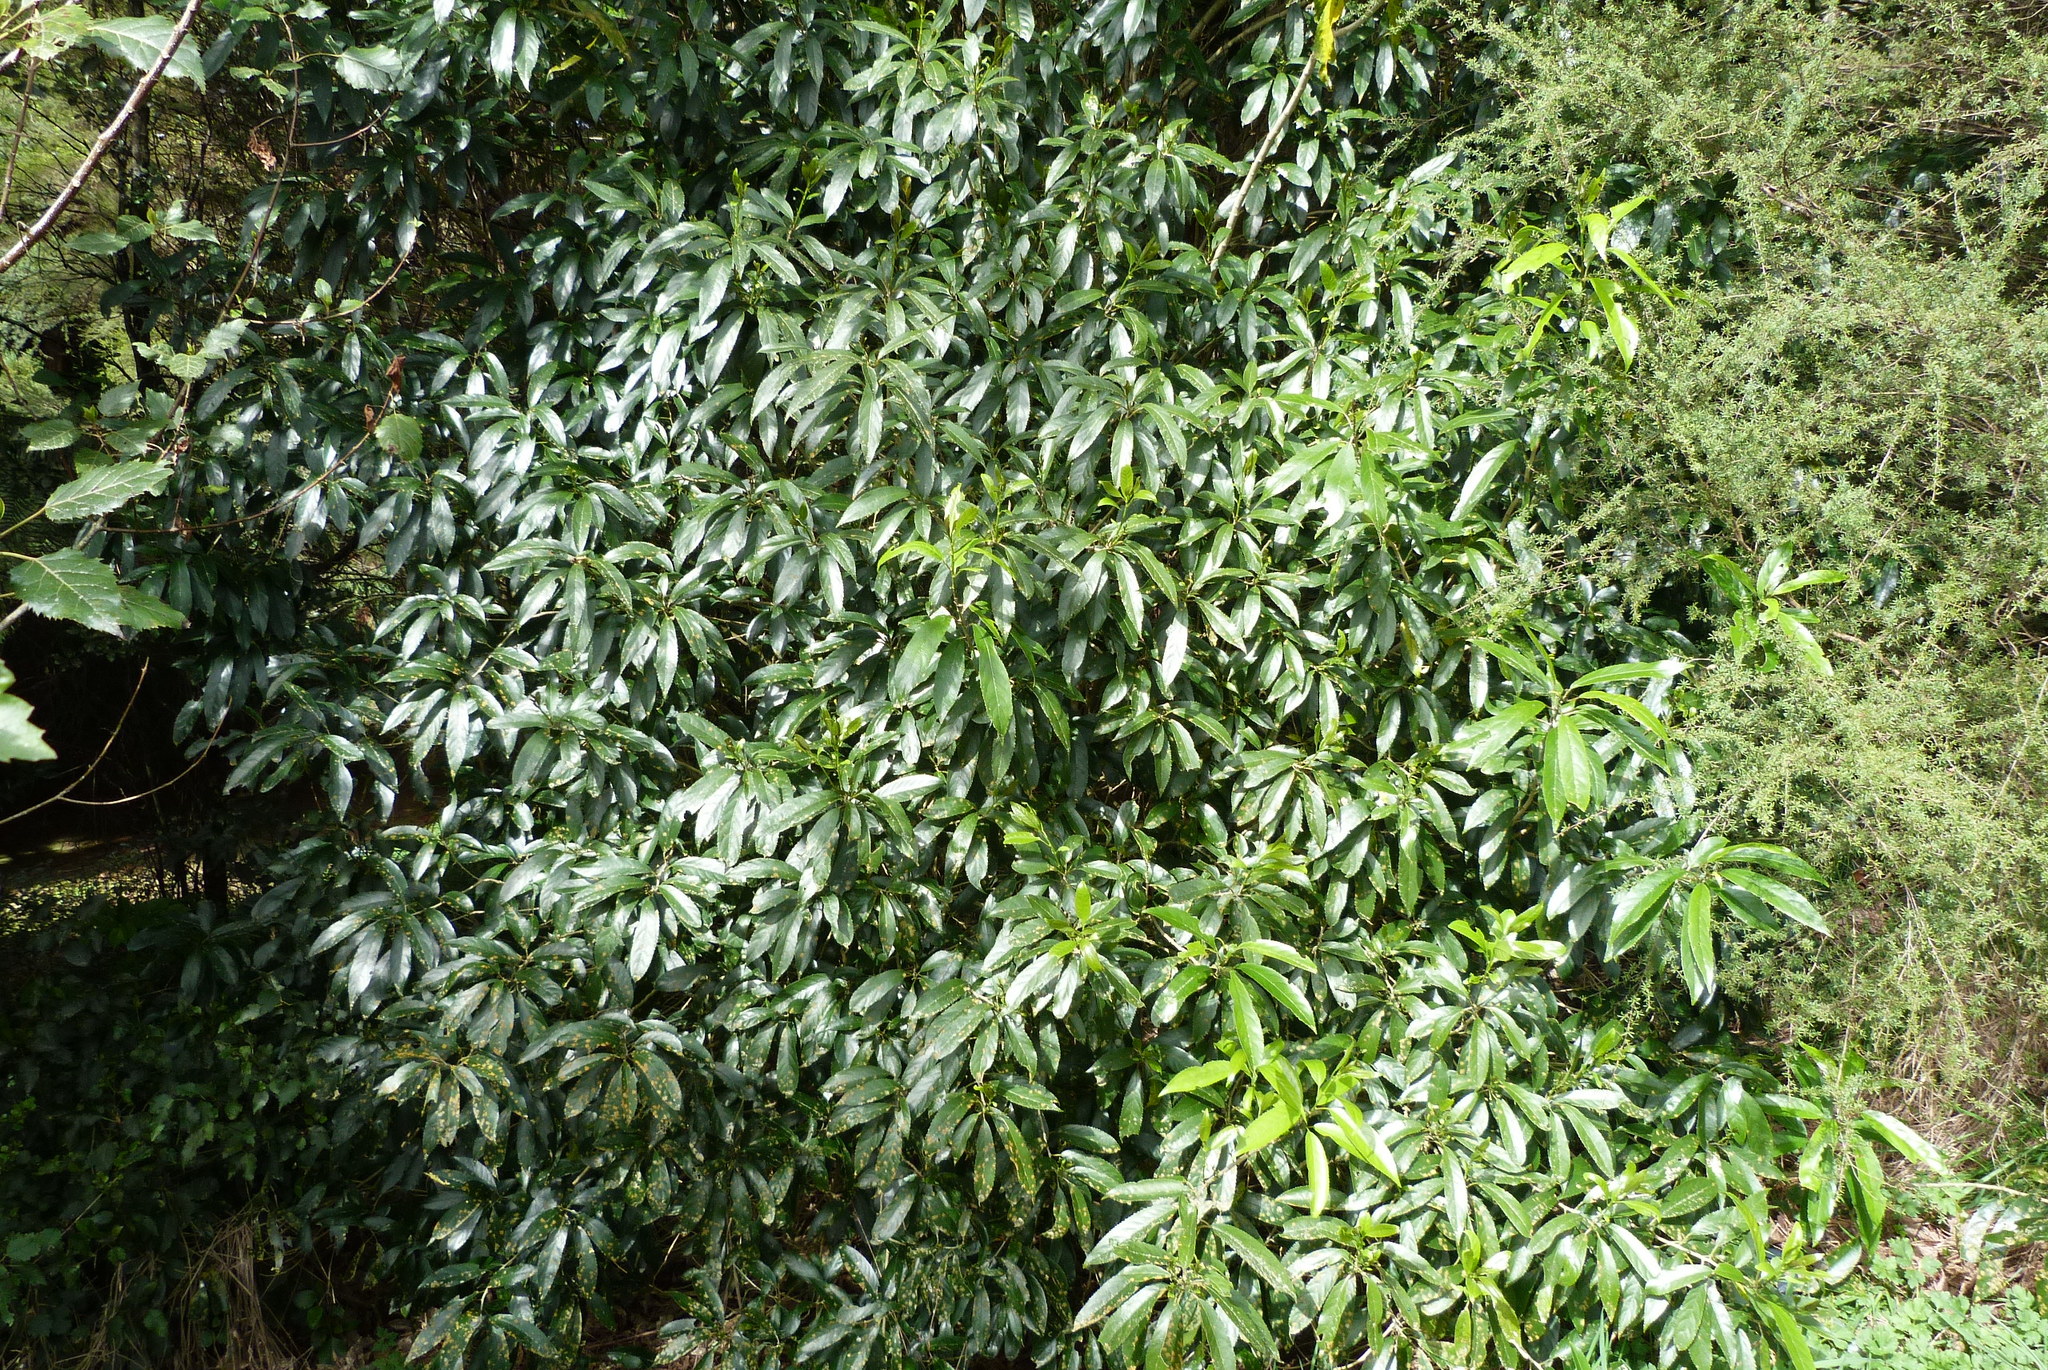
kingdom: Plantae
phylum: Tracheophyta
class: Magnoliopsida
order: Malpighiales
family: Violaceae
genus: Melicytus
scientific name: Melicytus ramiflorus
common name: Mahoe
